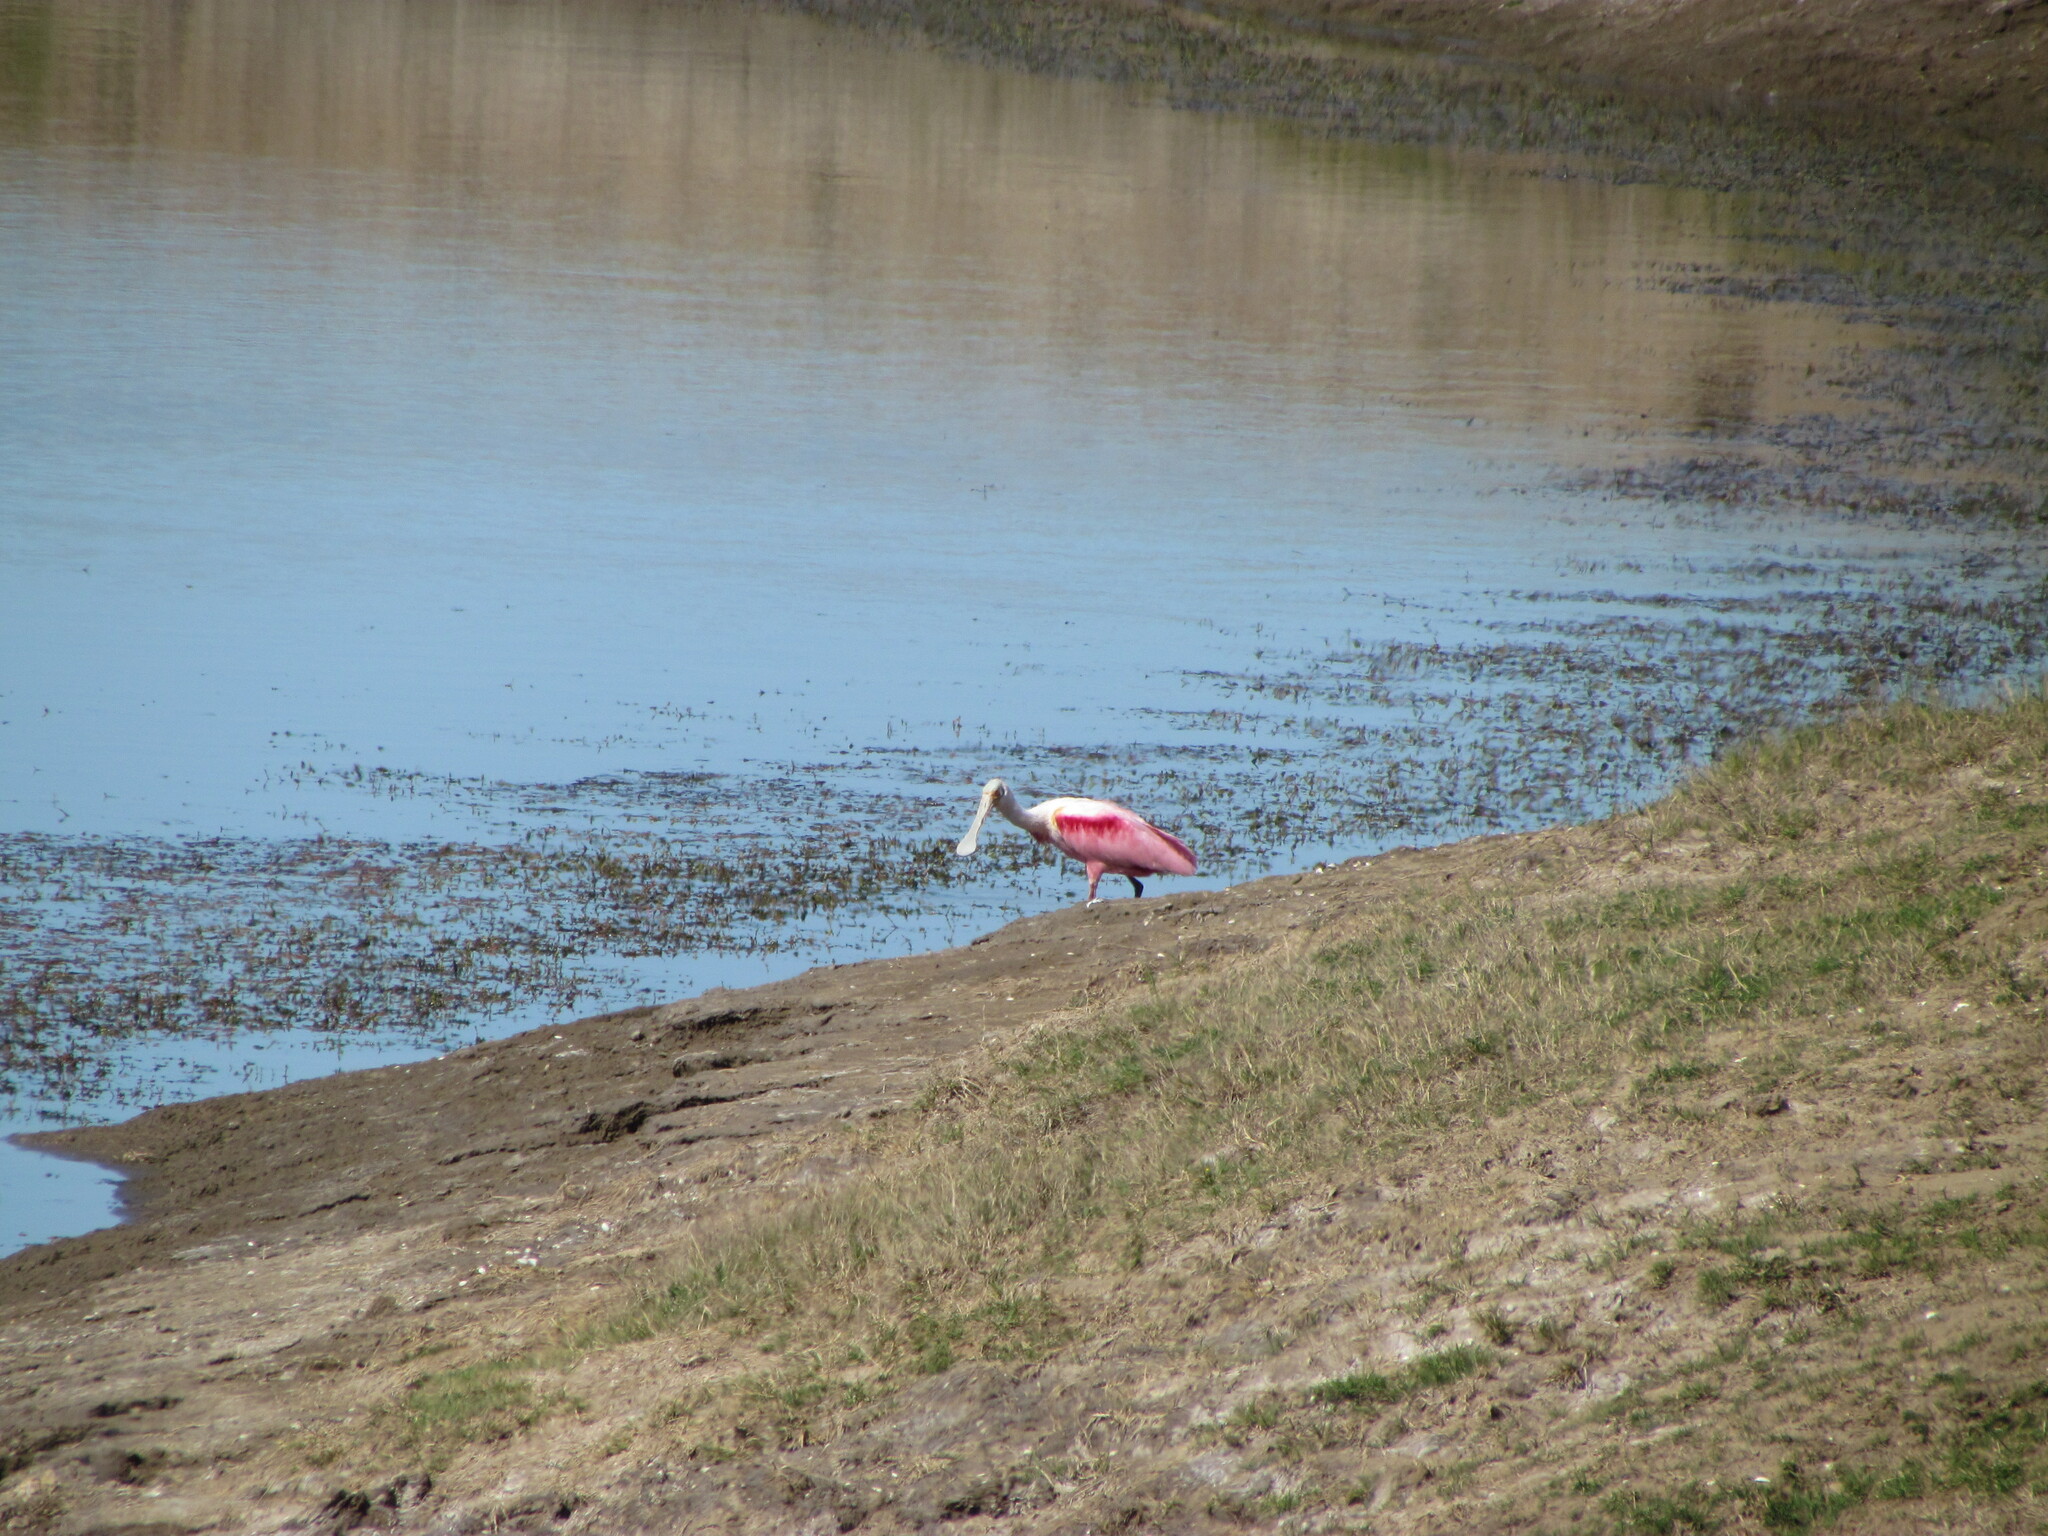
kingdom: Animalia
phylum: Chordata
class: Aves
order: Pelecaniformes
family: Threskiornithidae
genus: Platalea
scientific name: Platalea ajaja
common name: Roseate spoonbill
